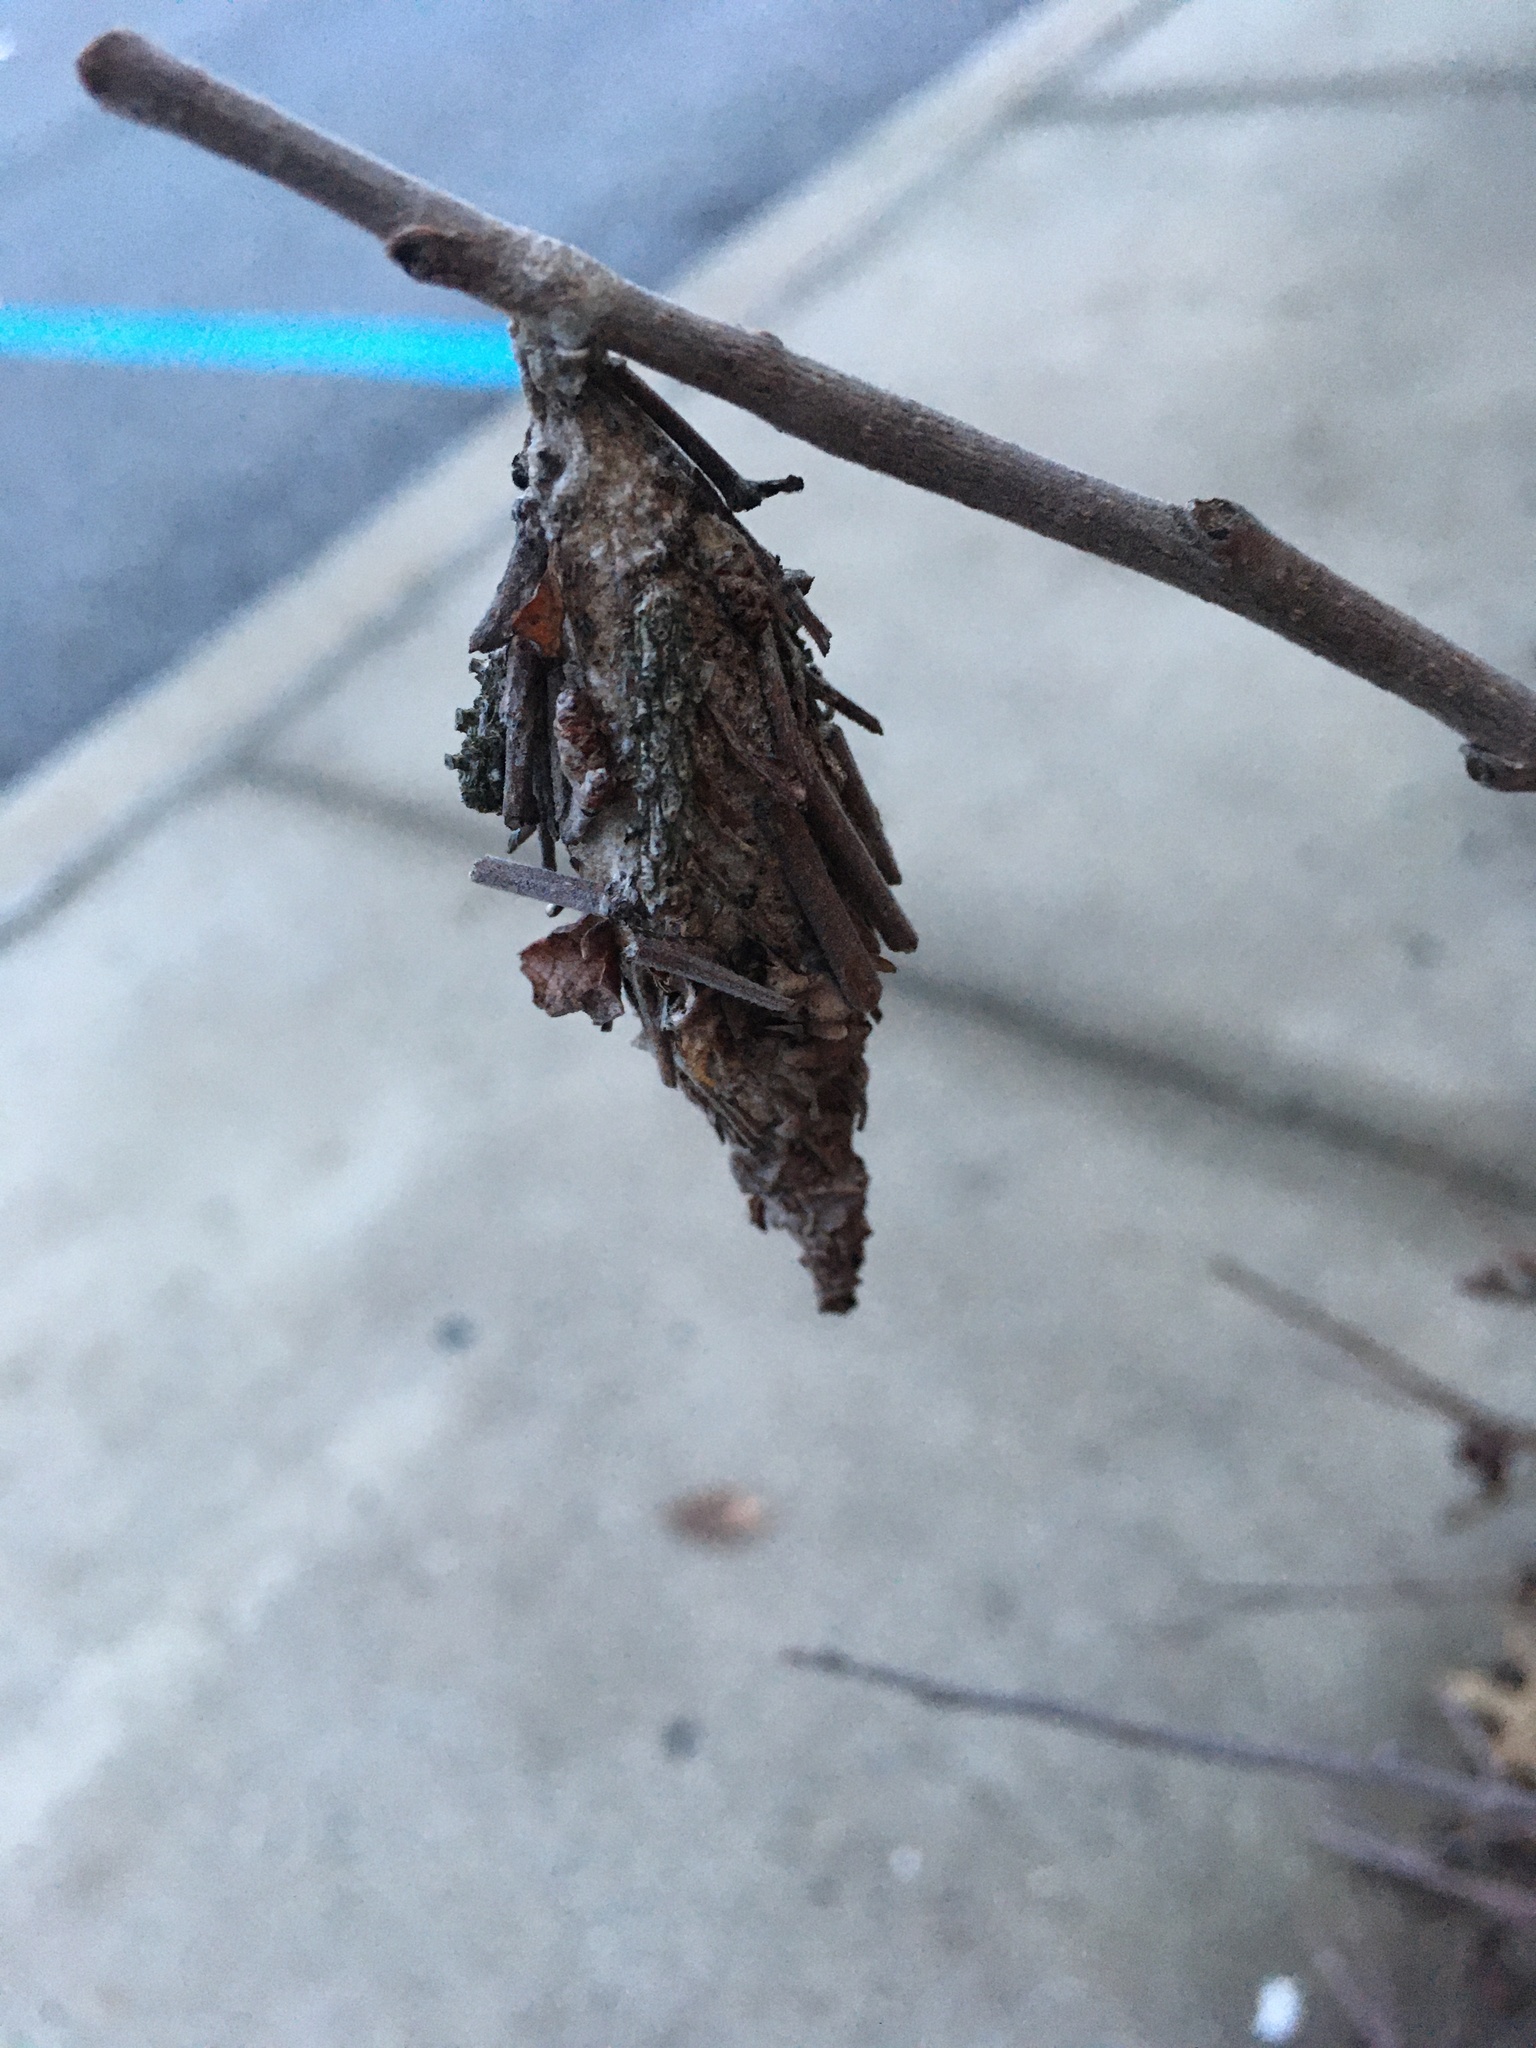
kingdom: Animalia
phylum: Arthropoda
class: Insecta
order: Lepidoptera
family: Psychidae
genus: Thyridopteryx
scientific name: Thyridopteryx ephemeraeformis
